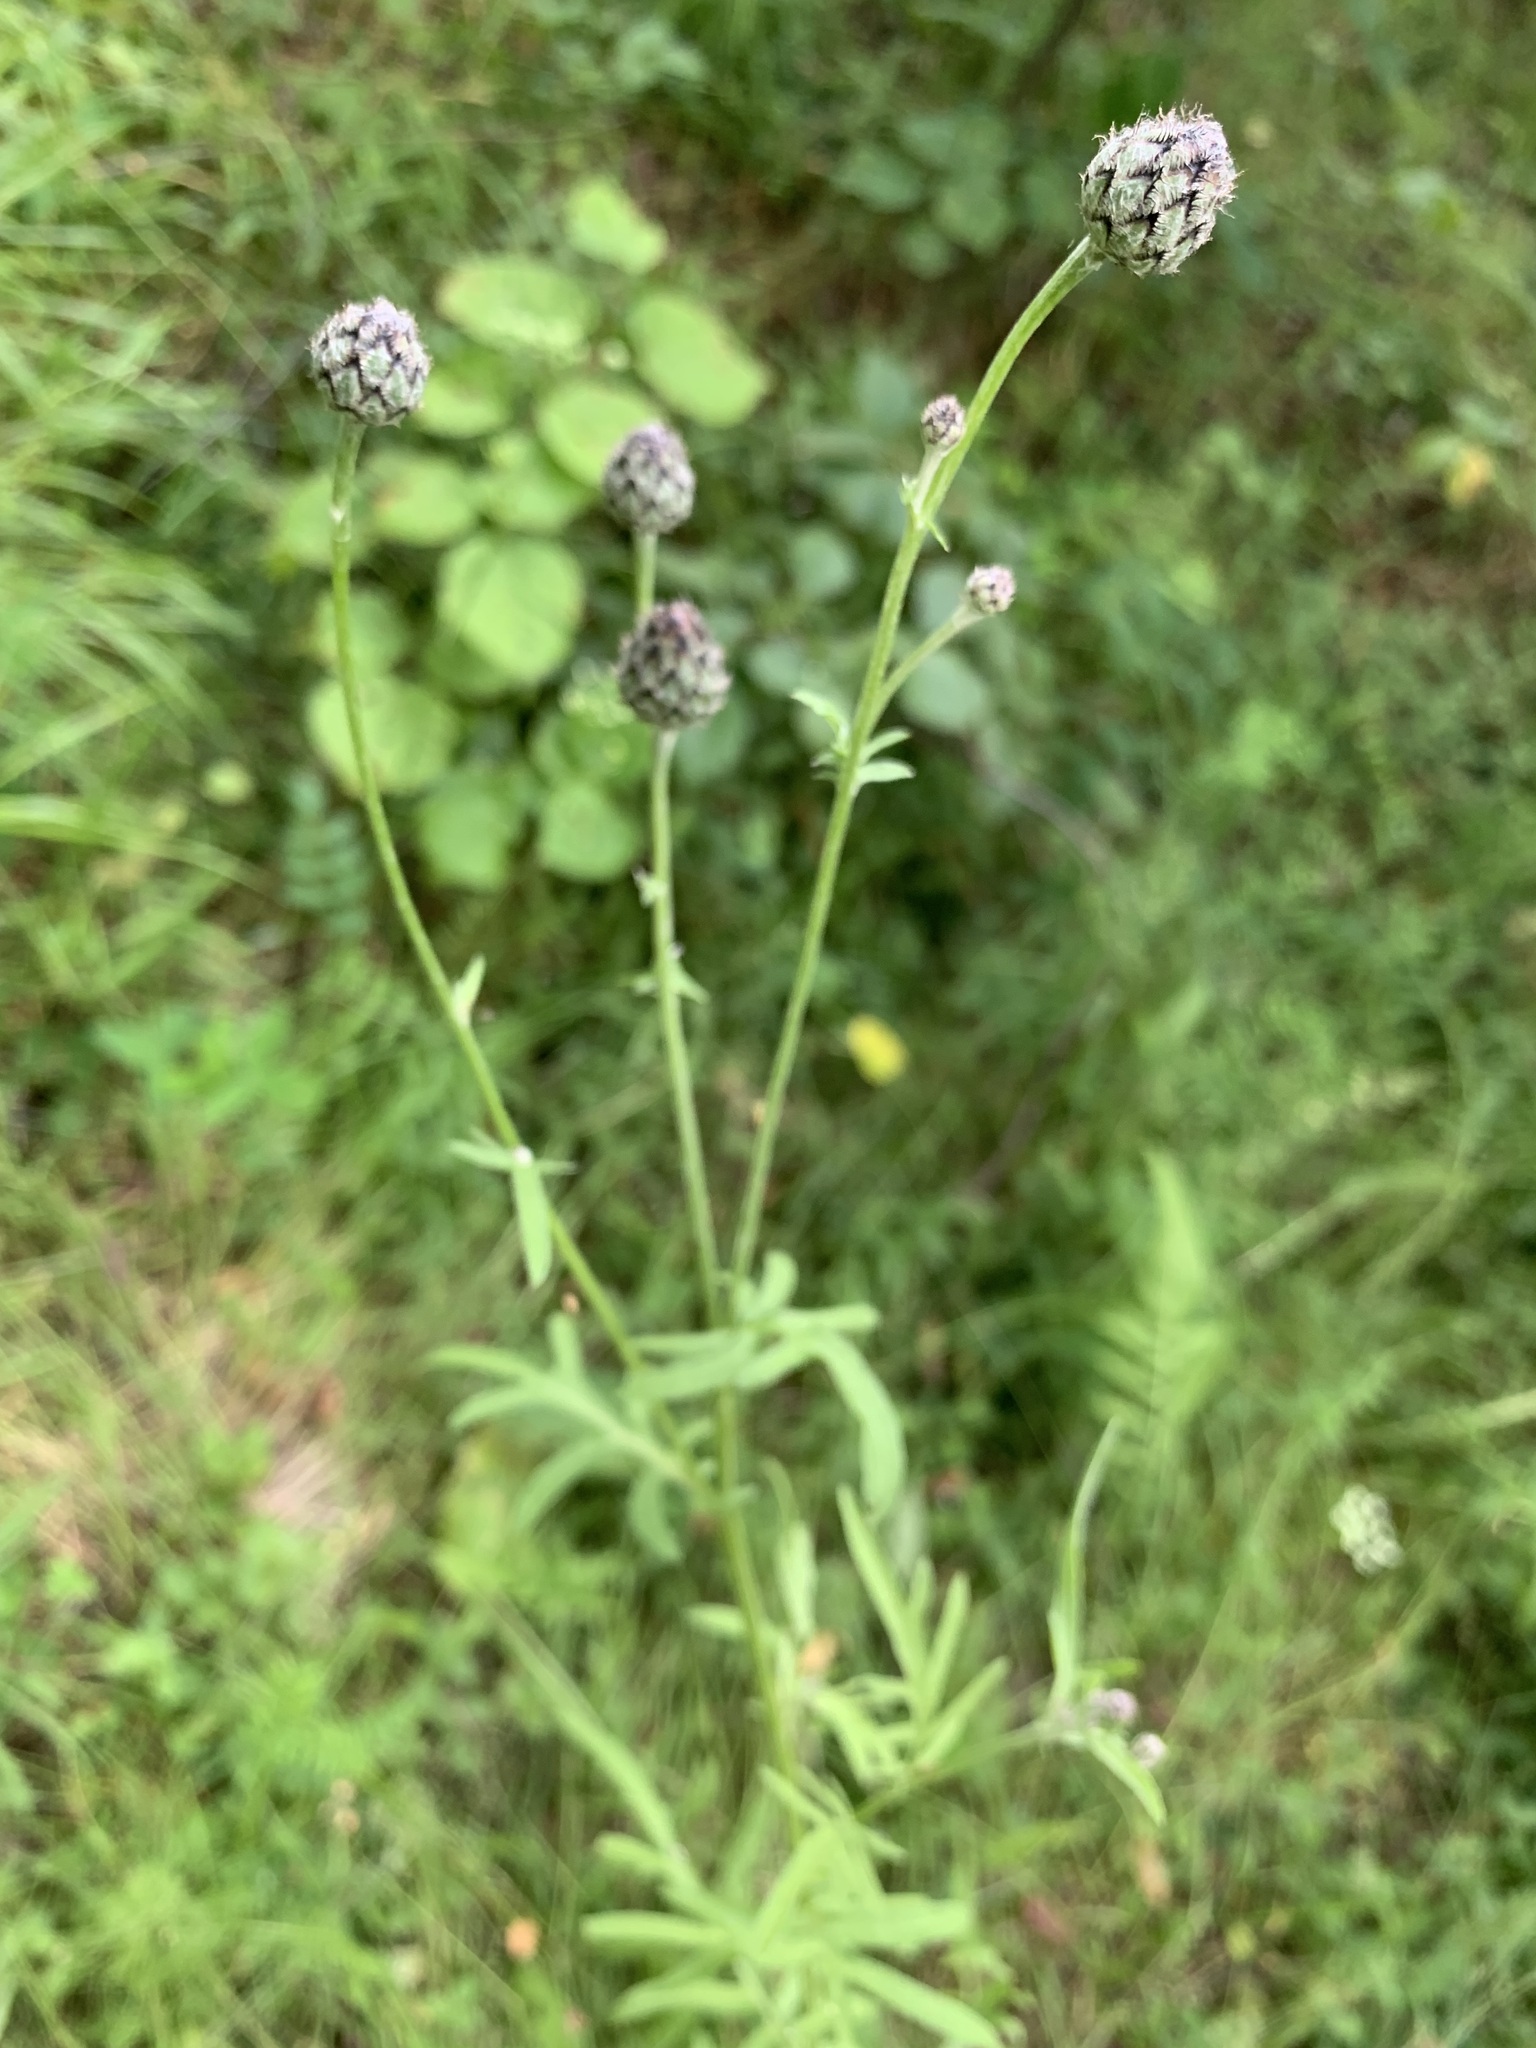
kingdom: Plantae
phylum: Tracheophyta
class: Magnoliopsida
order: Asterales
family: Asteraceae
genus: Centaurea
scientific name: Centaurea scabiosa
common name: Greater knapweed
